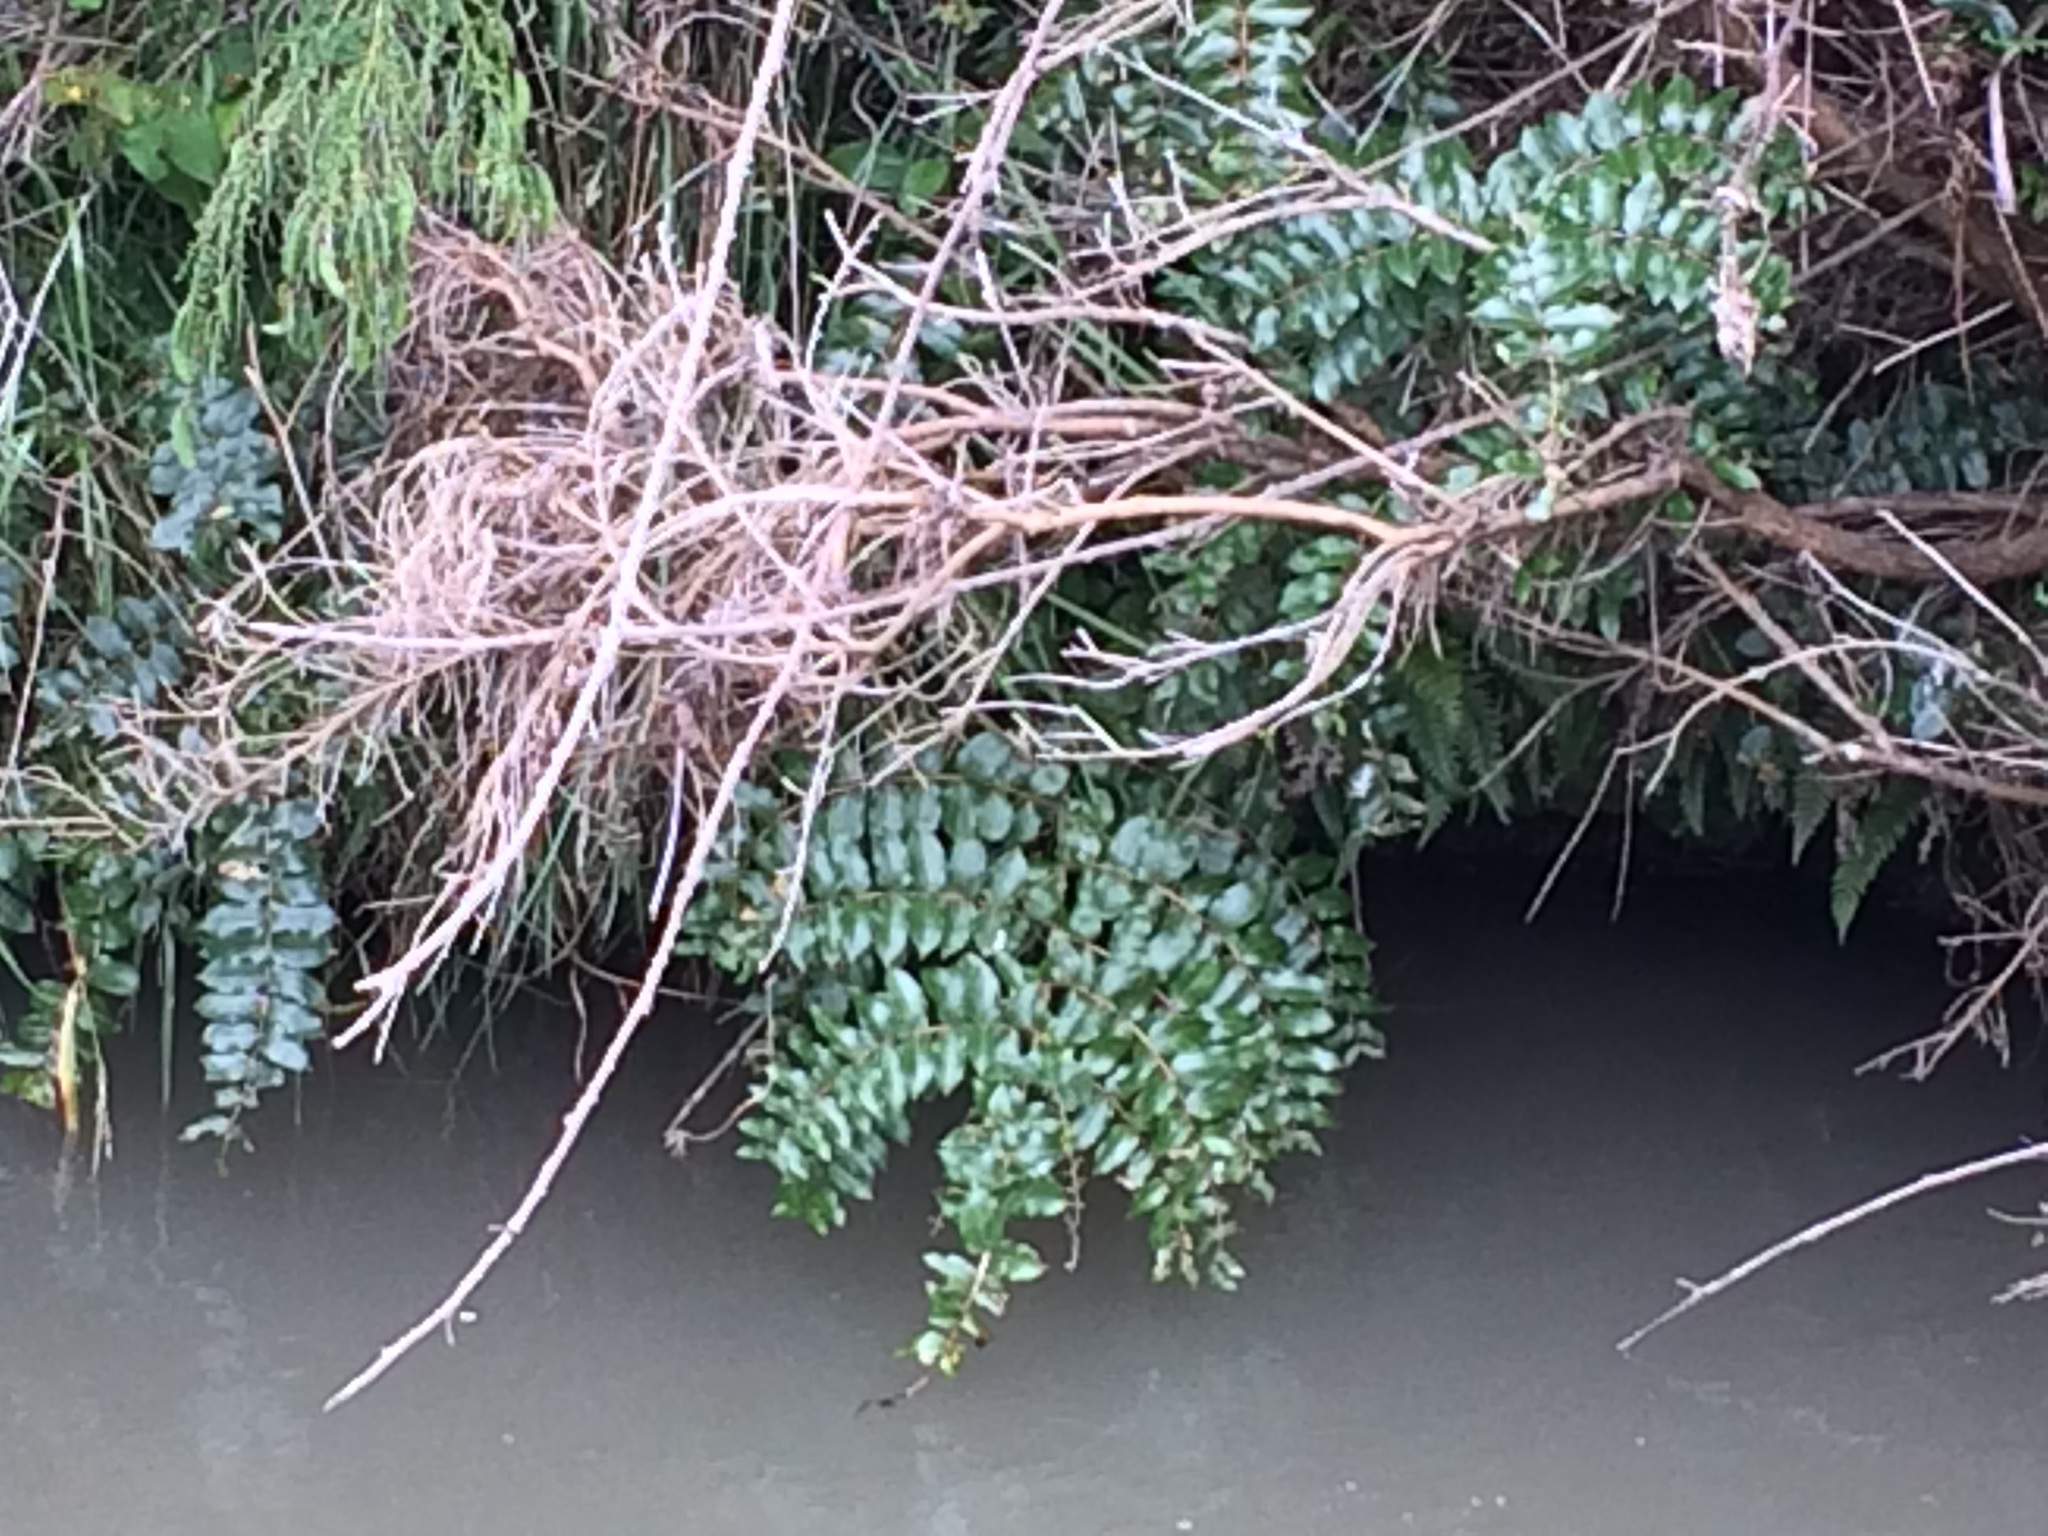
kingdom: Plantae
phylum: Tracheophyta
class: Magnoliopsida
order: Cucurbitales
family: Coriariaceae
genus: Coriaria
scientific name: Coriaria arborea
